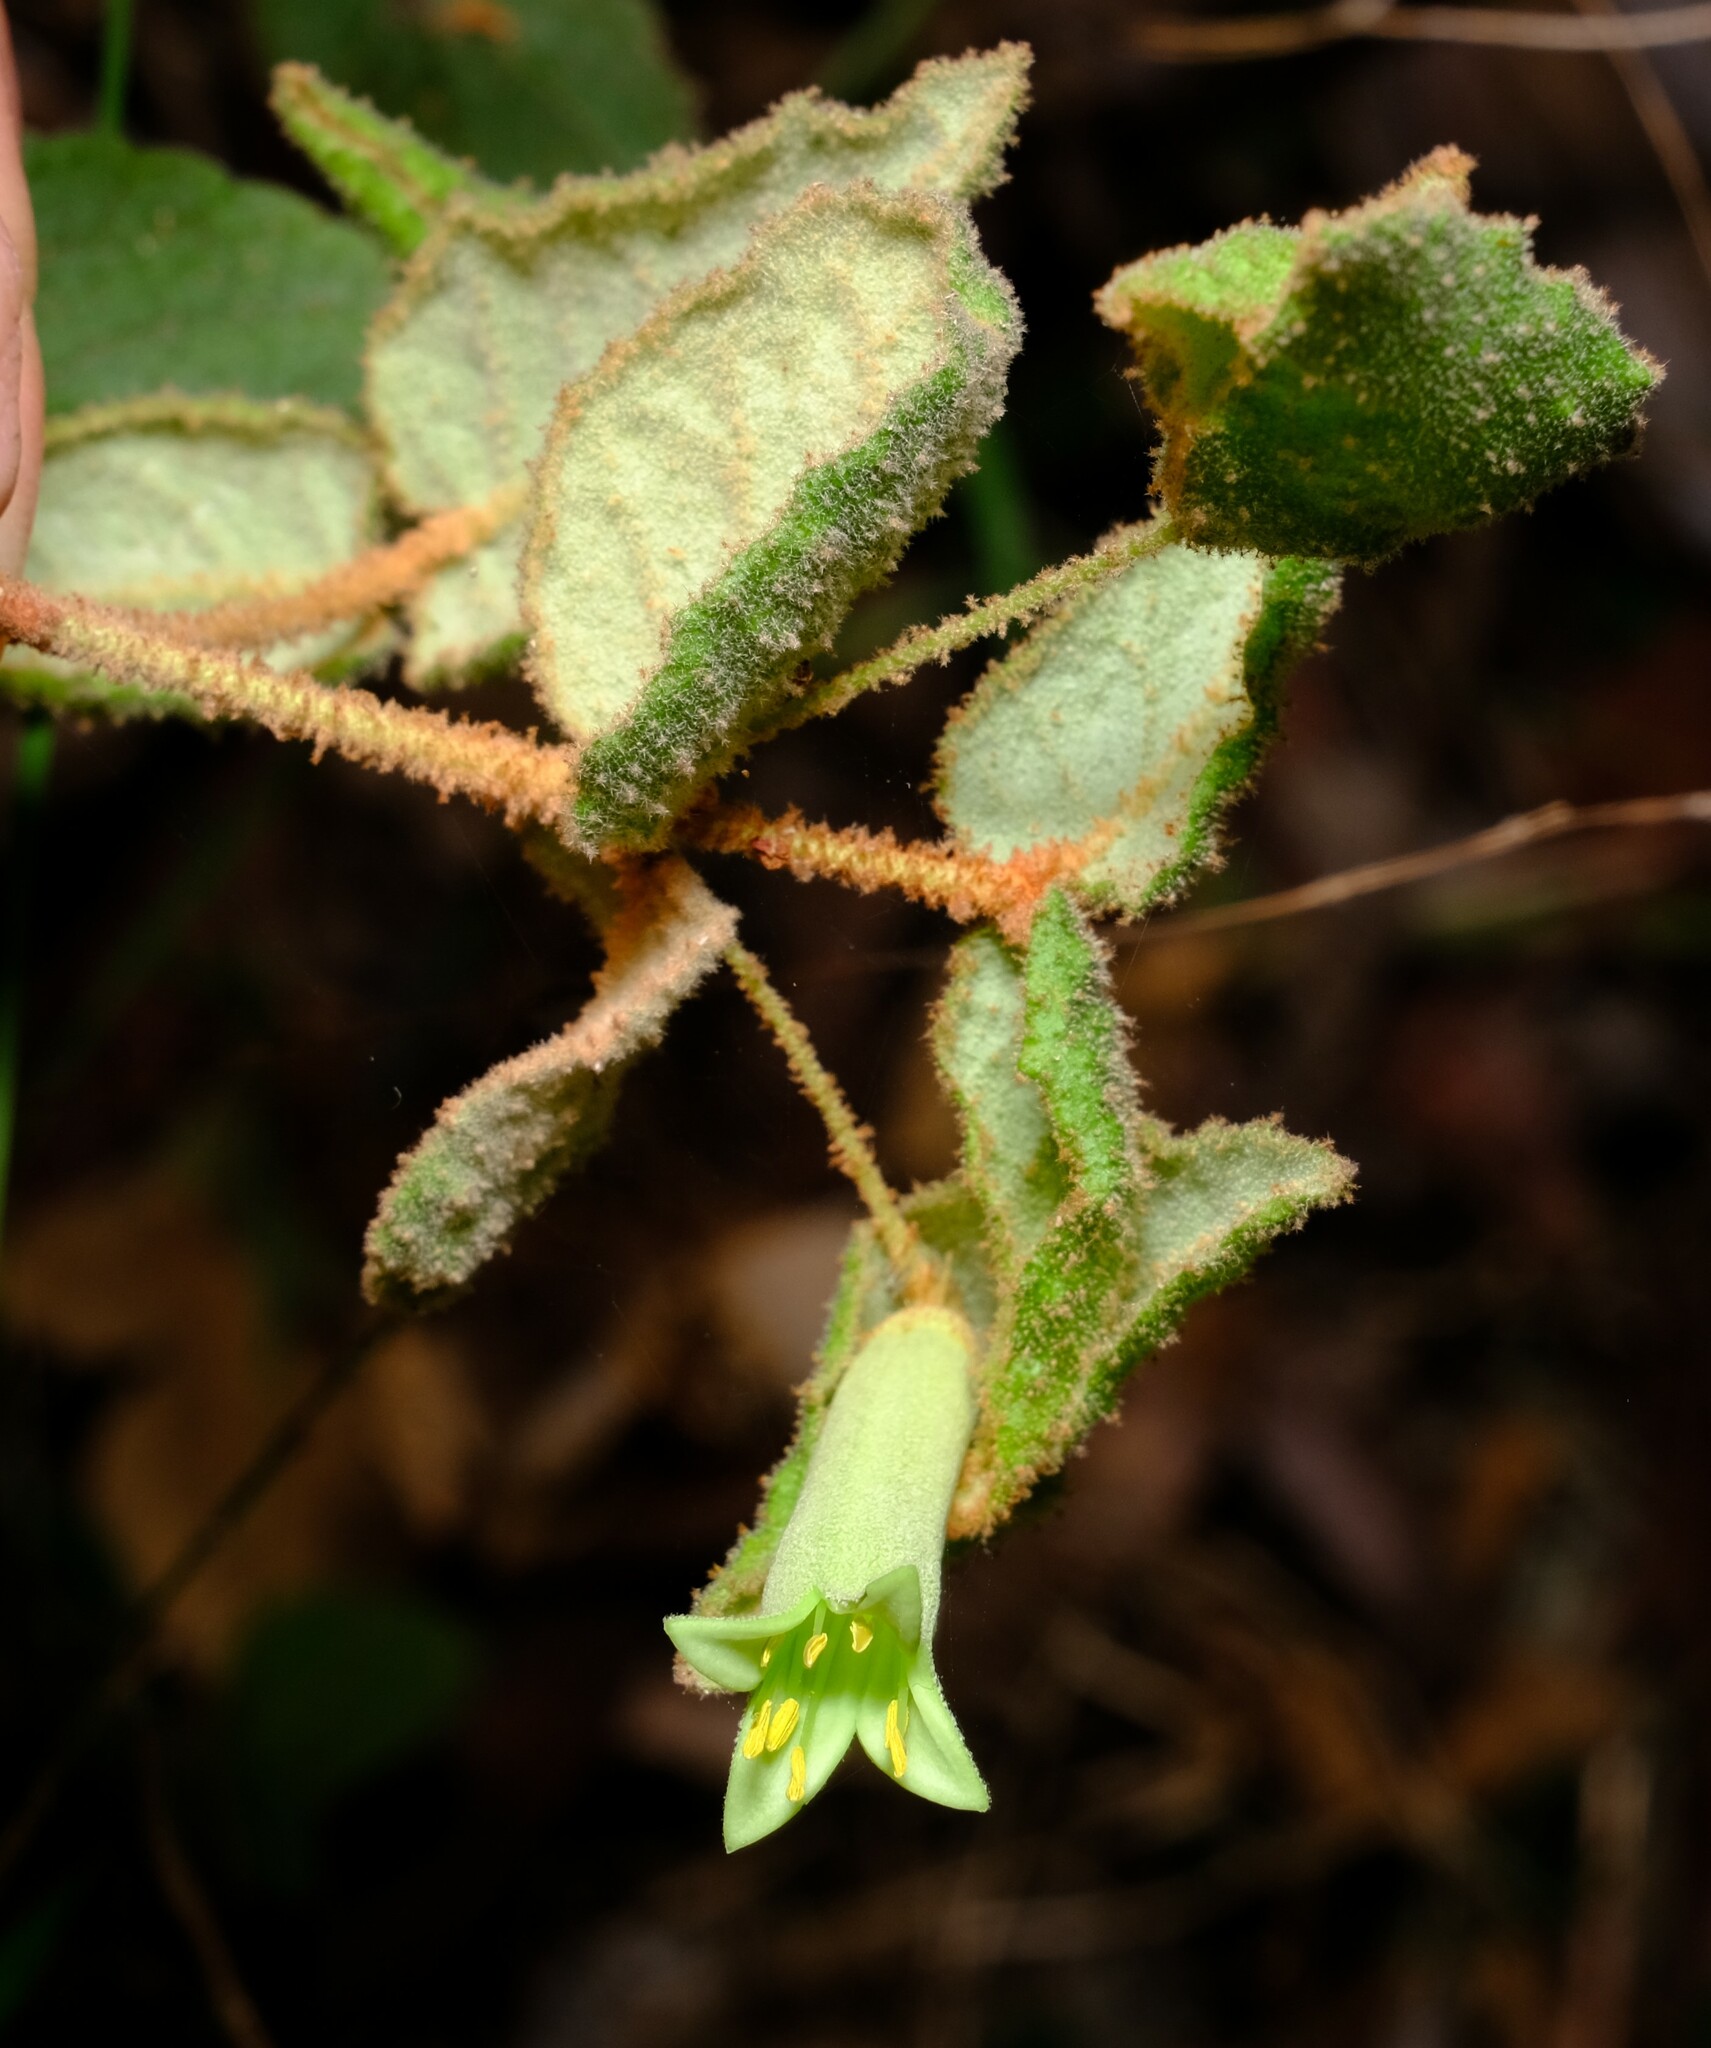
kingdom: Plantae
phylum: Tracheophyta
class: Magnoliopsida
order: Sapindales
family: Rutaceae
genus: Correa
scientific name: Correa reflexa
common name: Common correa
